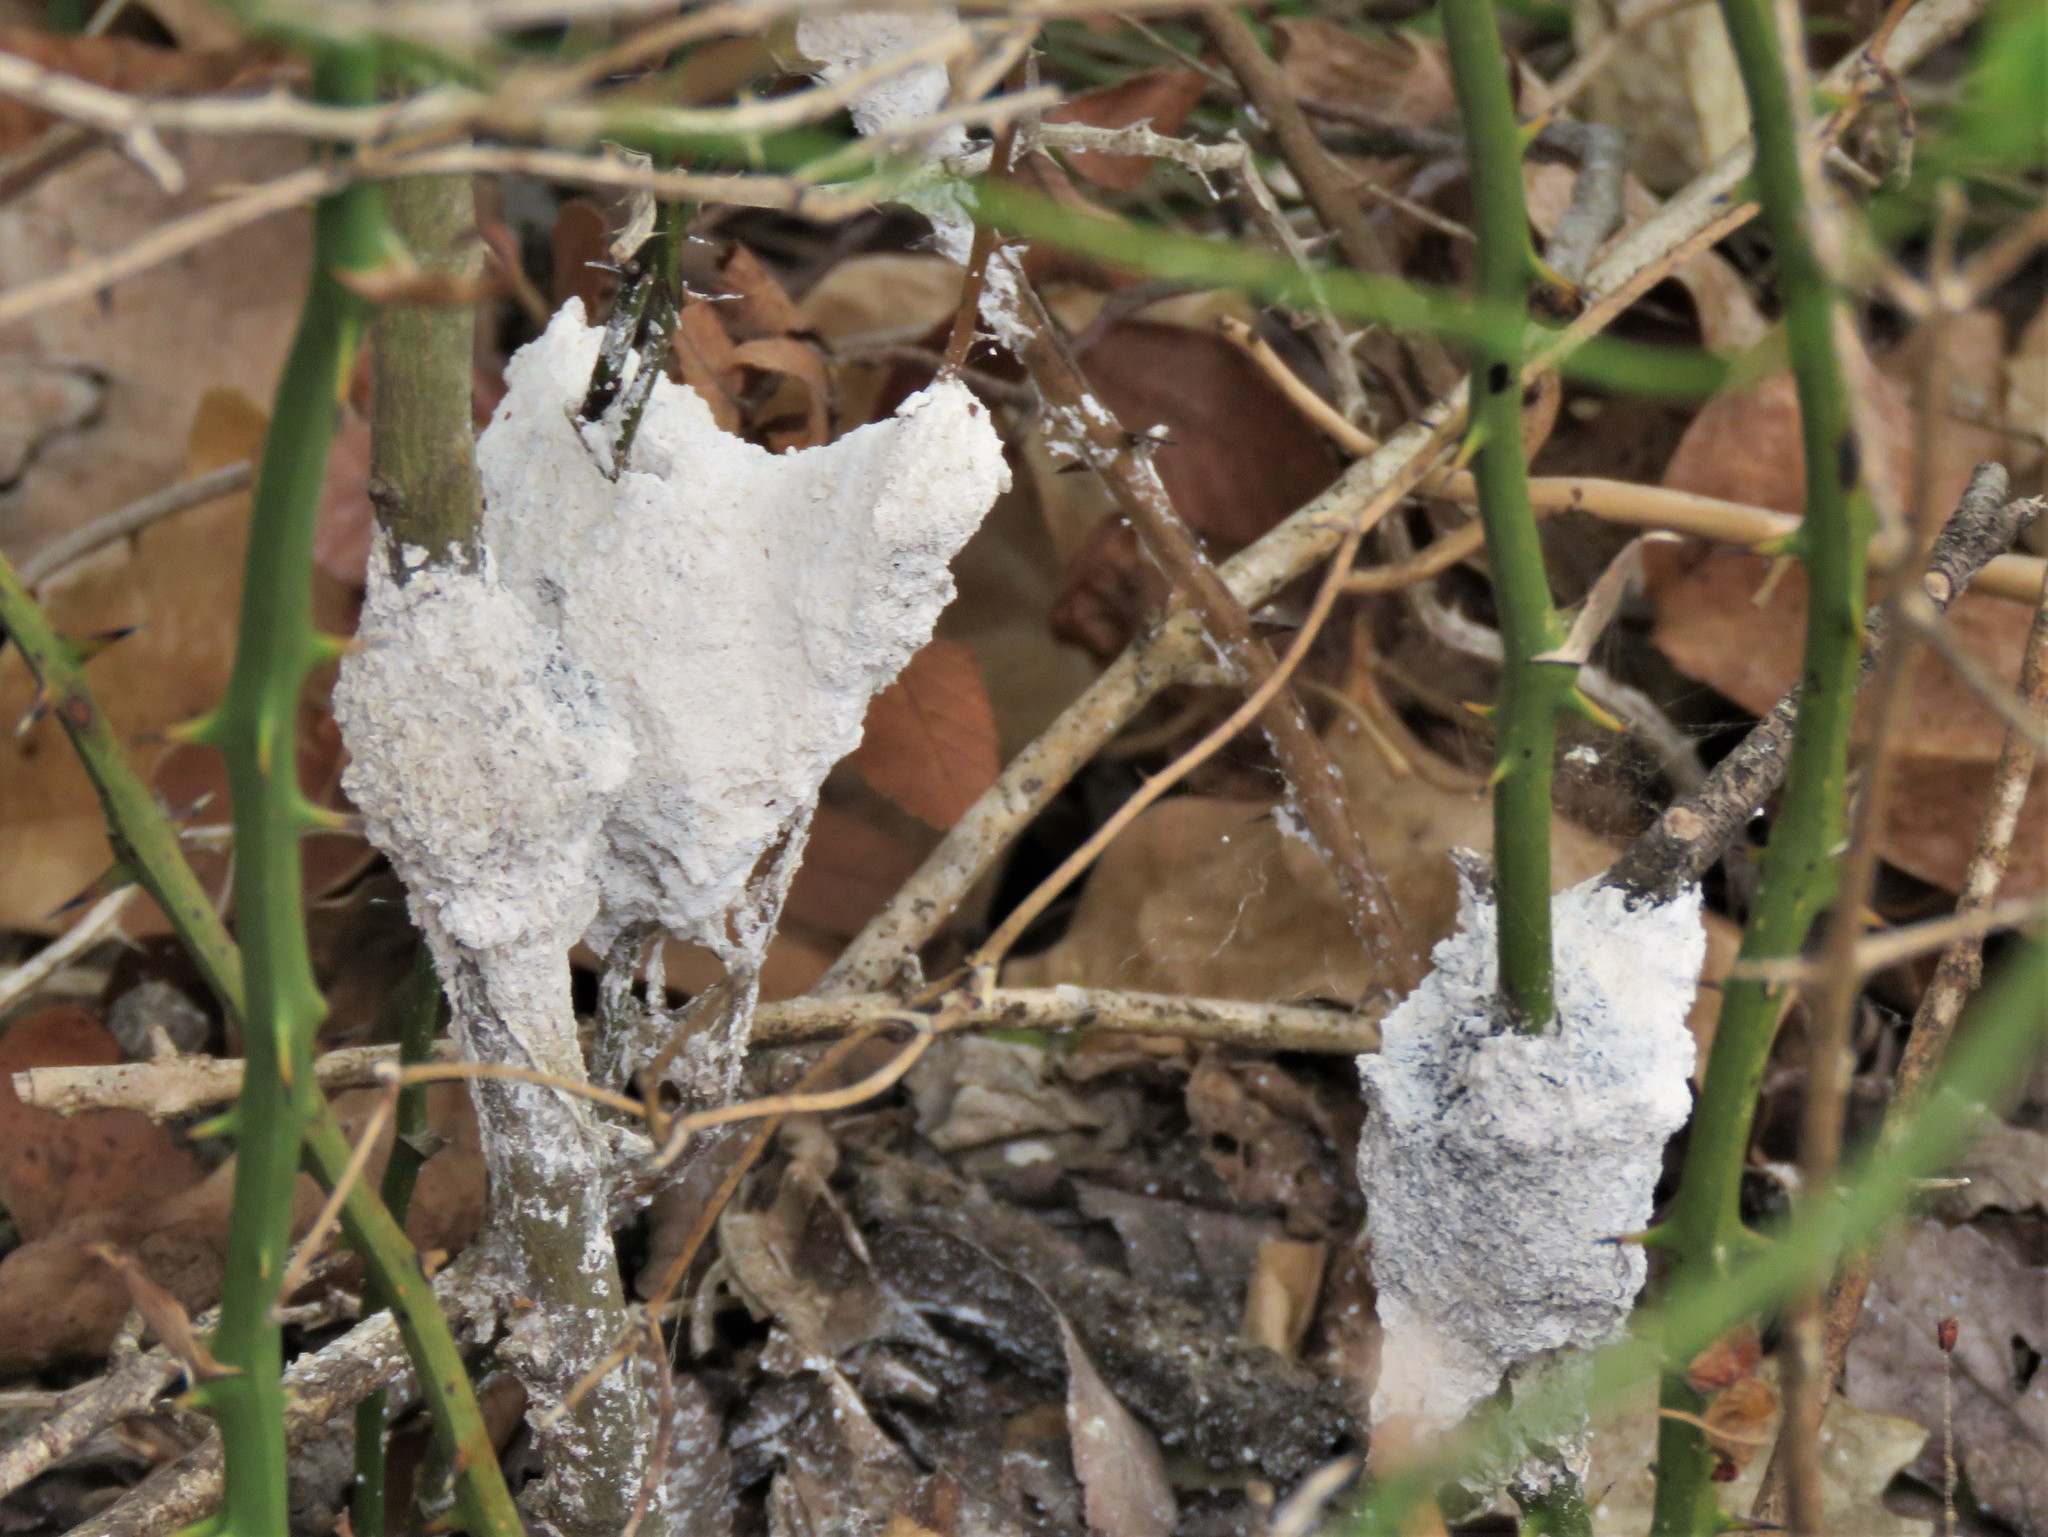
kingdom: Protozoa
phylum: Mycetozoa
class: Myxomycetes
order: Physarales
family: Physaraceae
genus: Didymium
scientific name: Didymium
